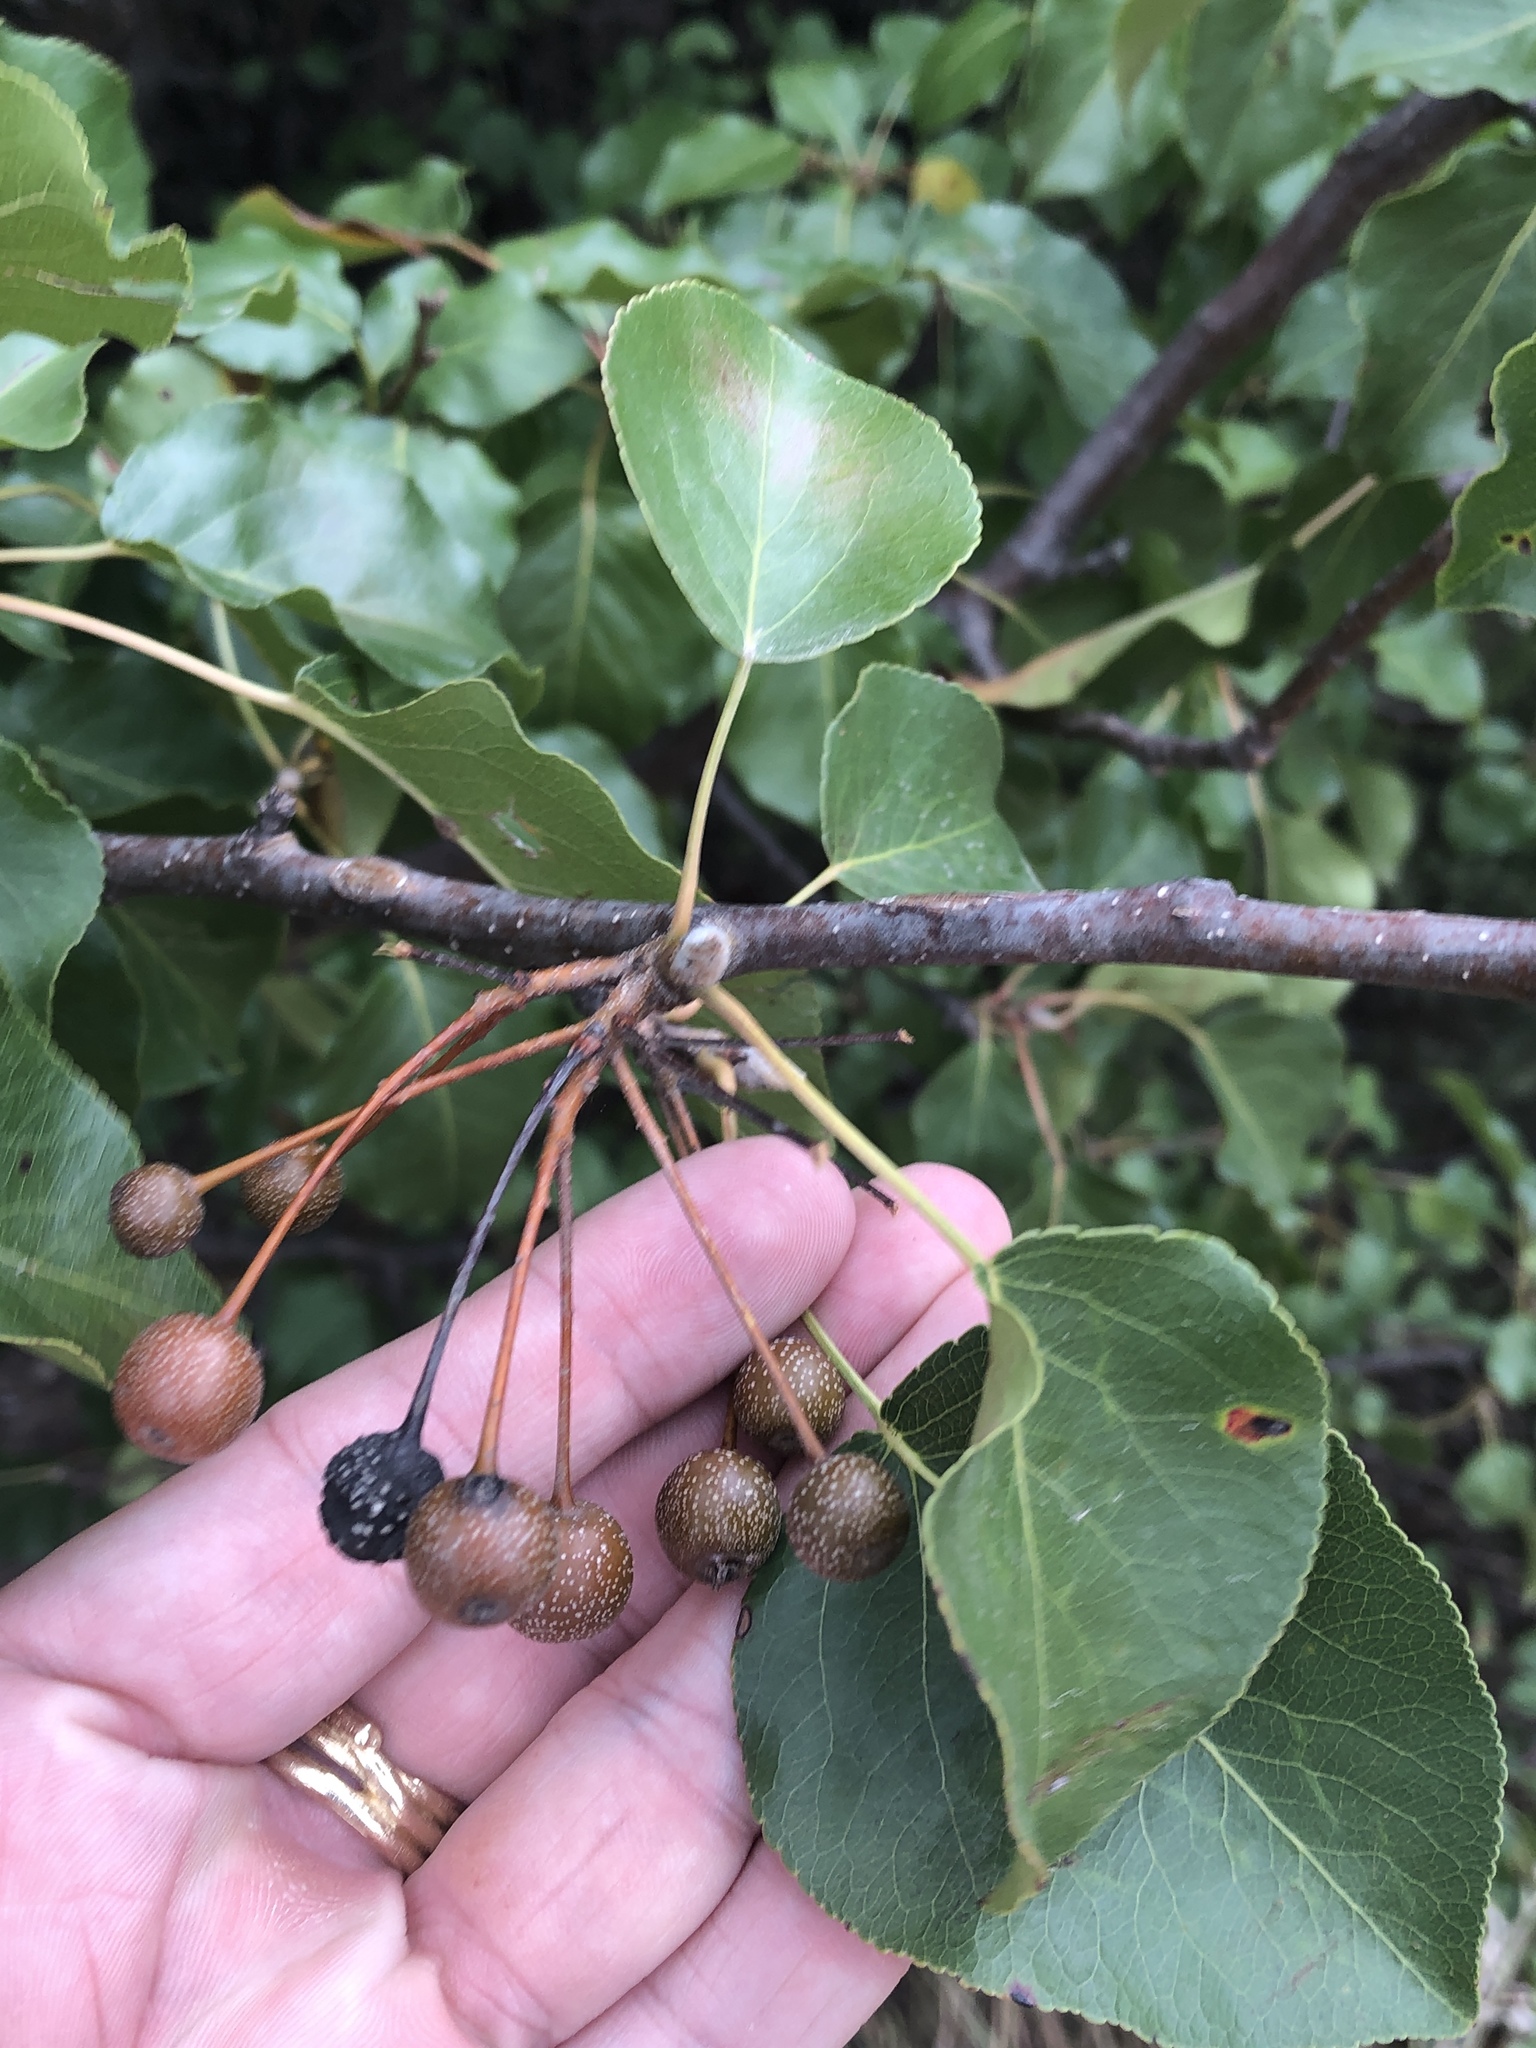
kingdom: Plantae
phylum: Tracheophyta
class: Magnoliopsida
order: Rosales
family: Rosaceae
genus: Pyrus
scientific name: Pyrus calleryana
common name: Callery pear
